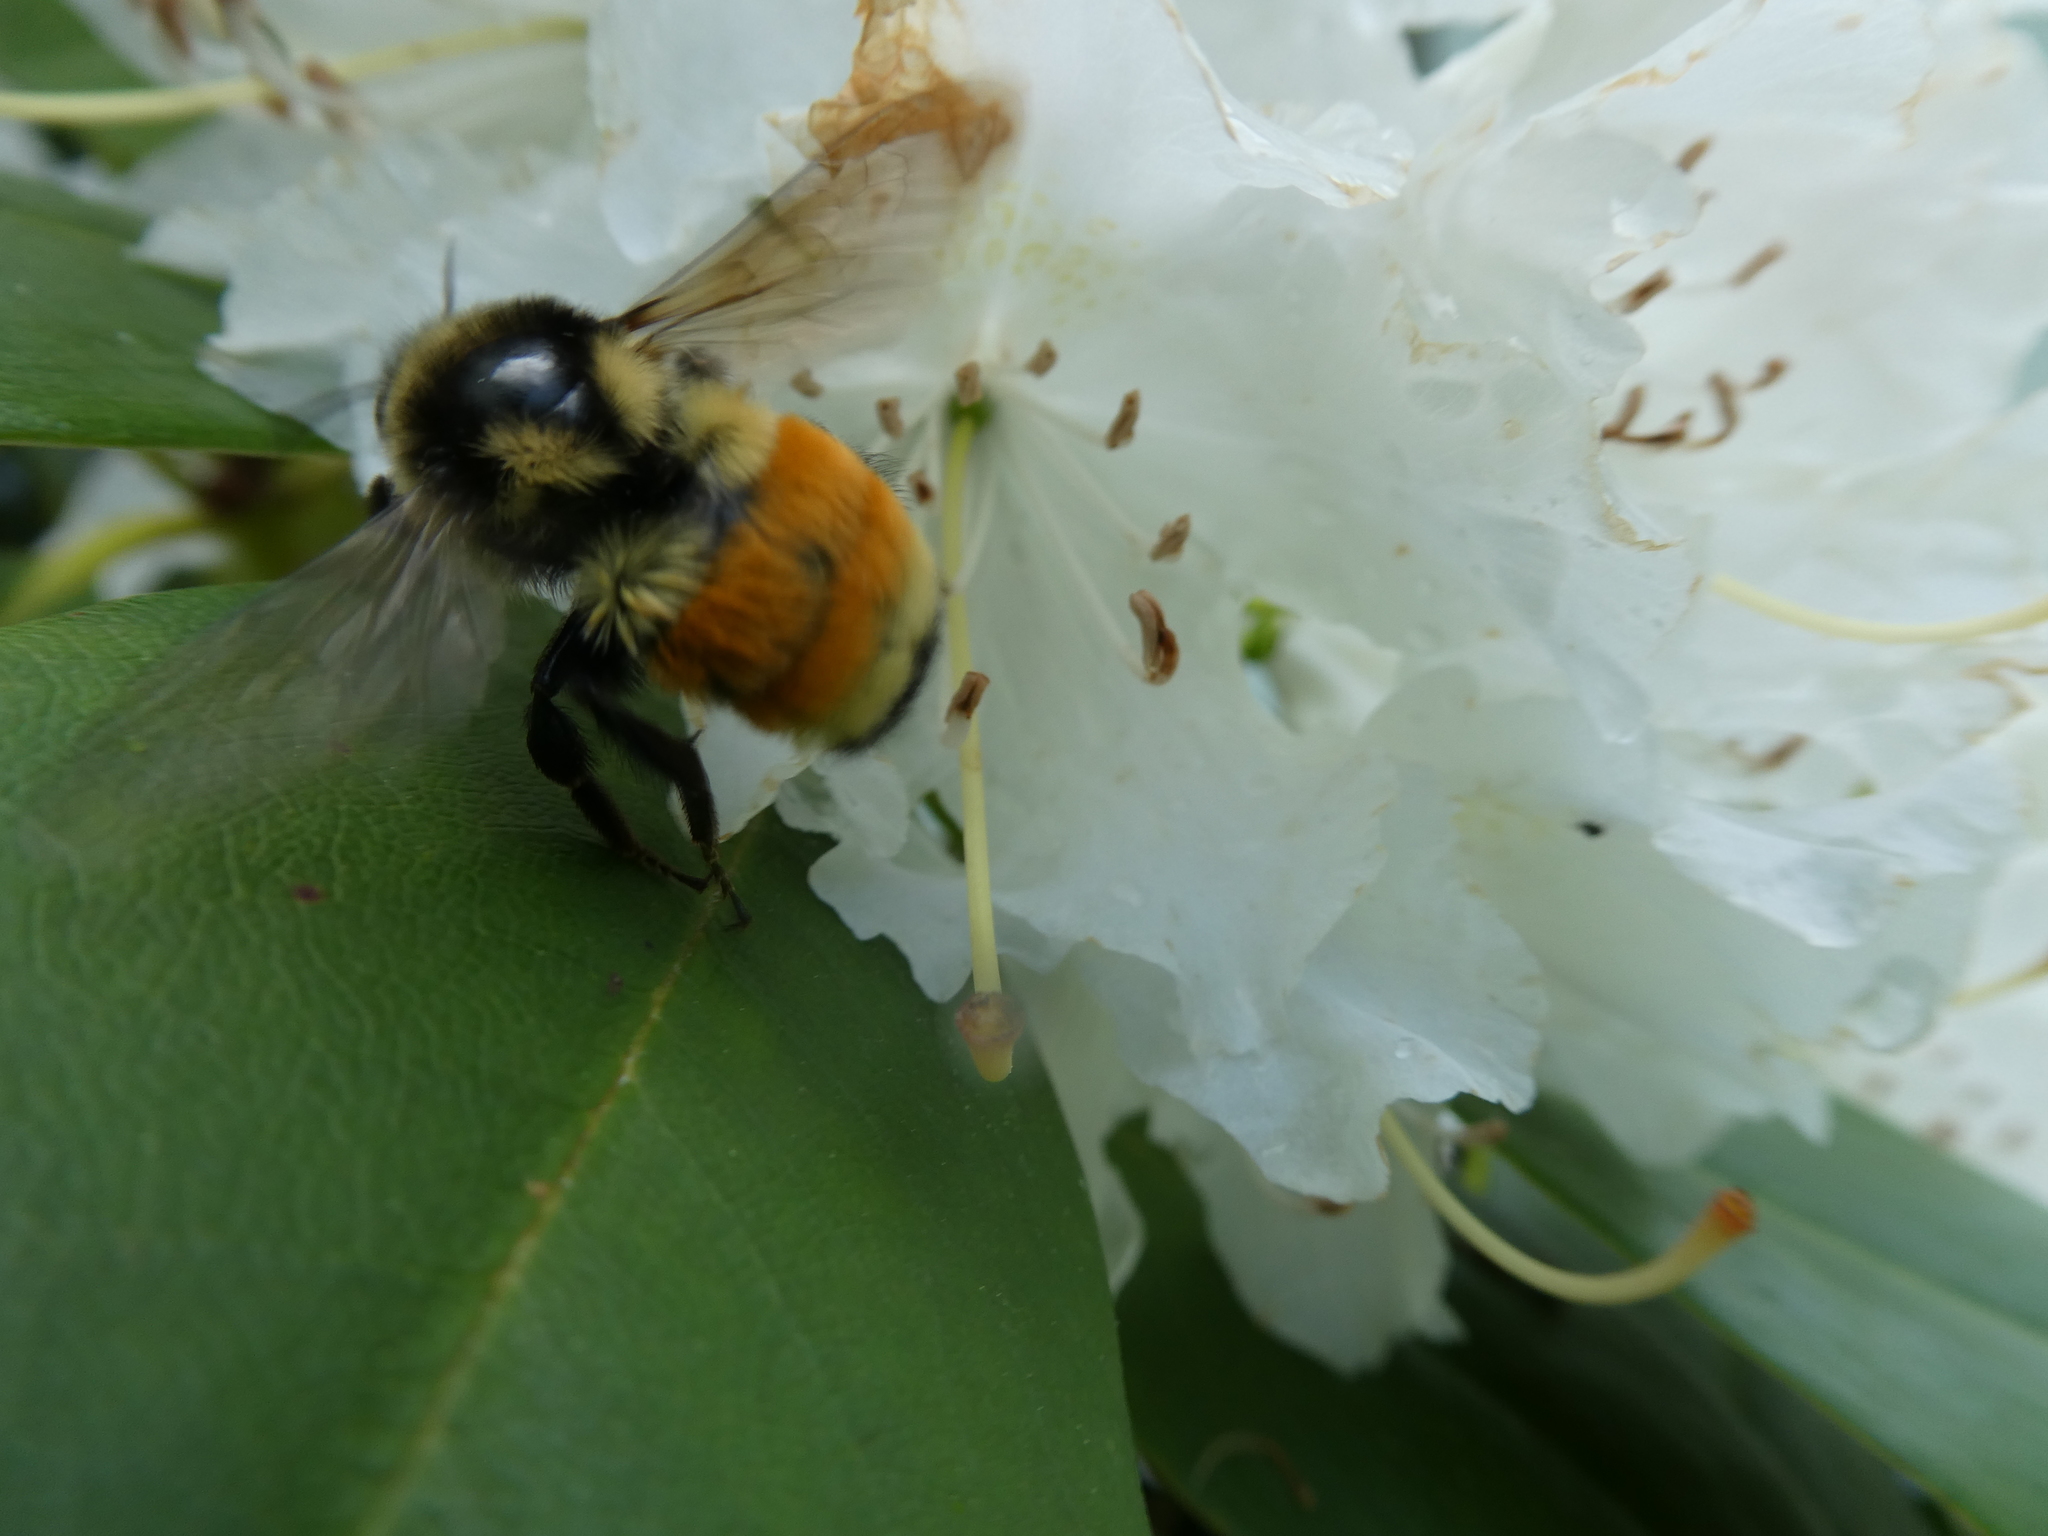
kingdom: Animalia
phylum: Arthropoda
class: Insecta
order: Hymenoptera
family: Apidae
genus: Bombus
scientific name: Bombus ternarius
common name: Tri-colored bumble bee
